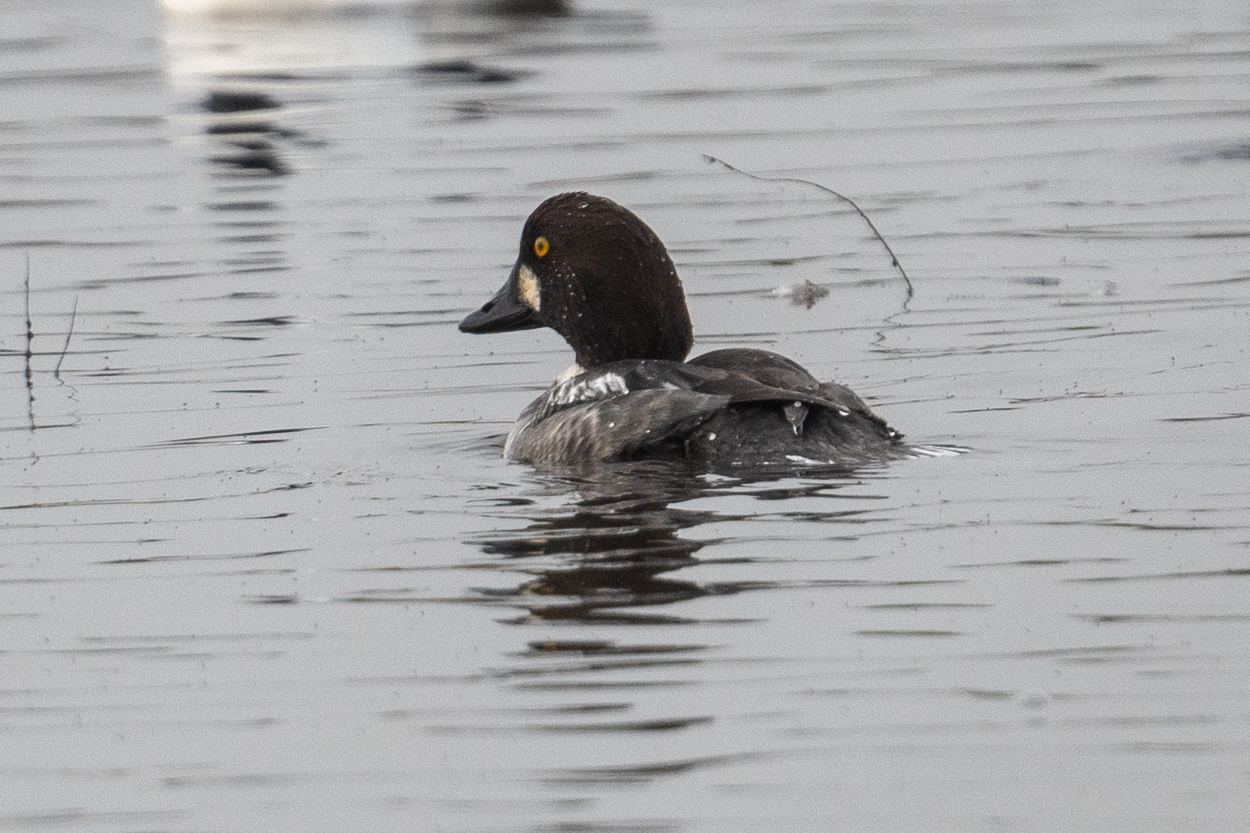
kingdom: Animalia
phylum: Chordata
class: Aves
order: Anseriformes
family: Anatidae
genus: Bucephala
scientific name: Bucephala clangula
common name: Common goldeneye
